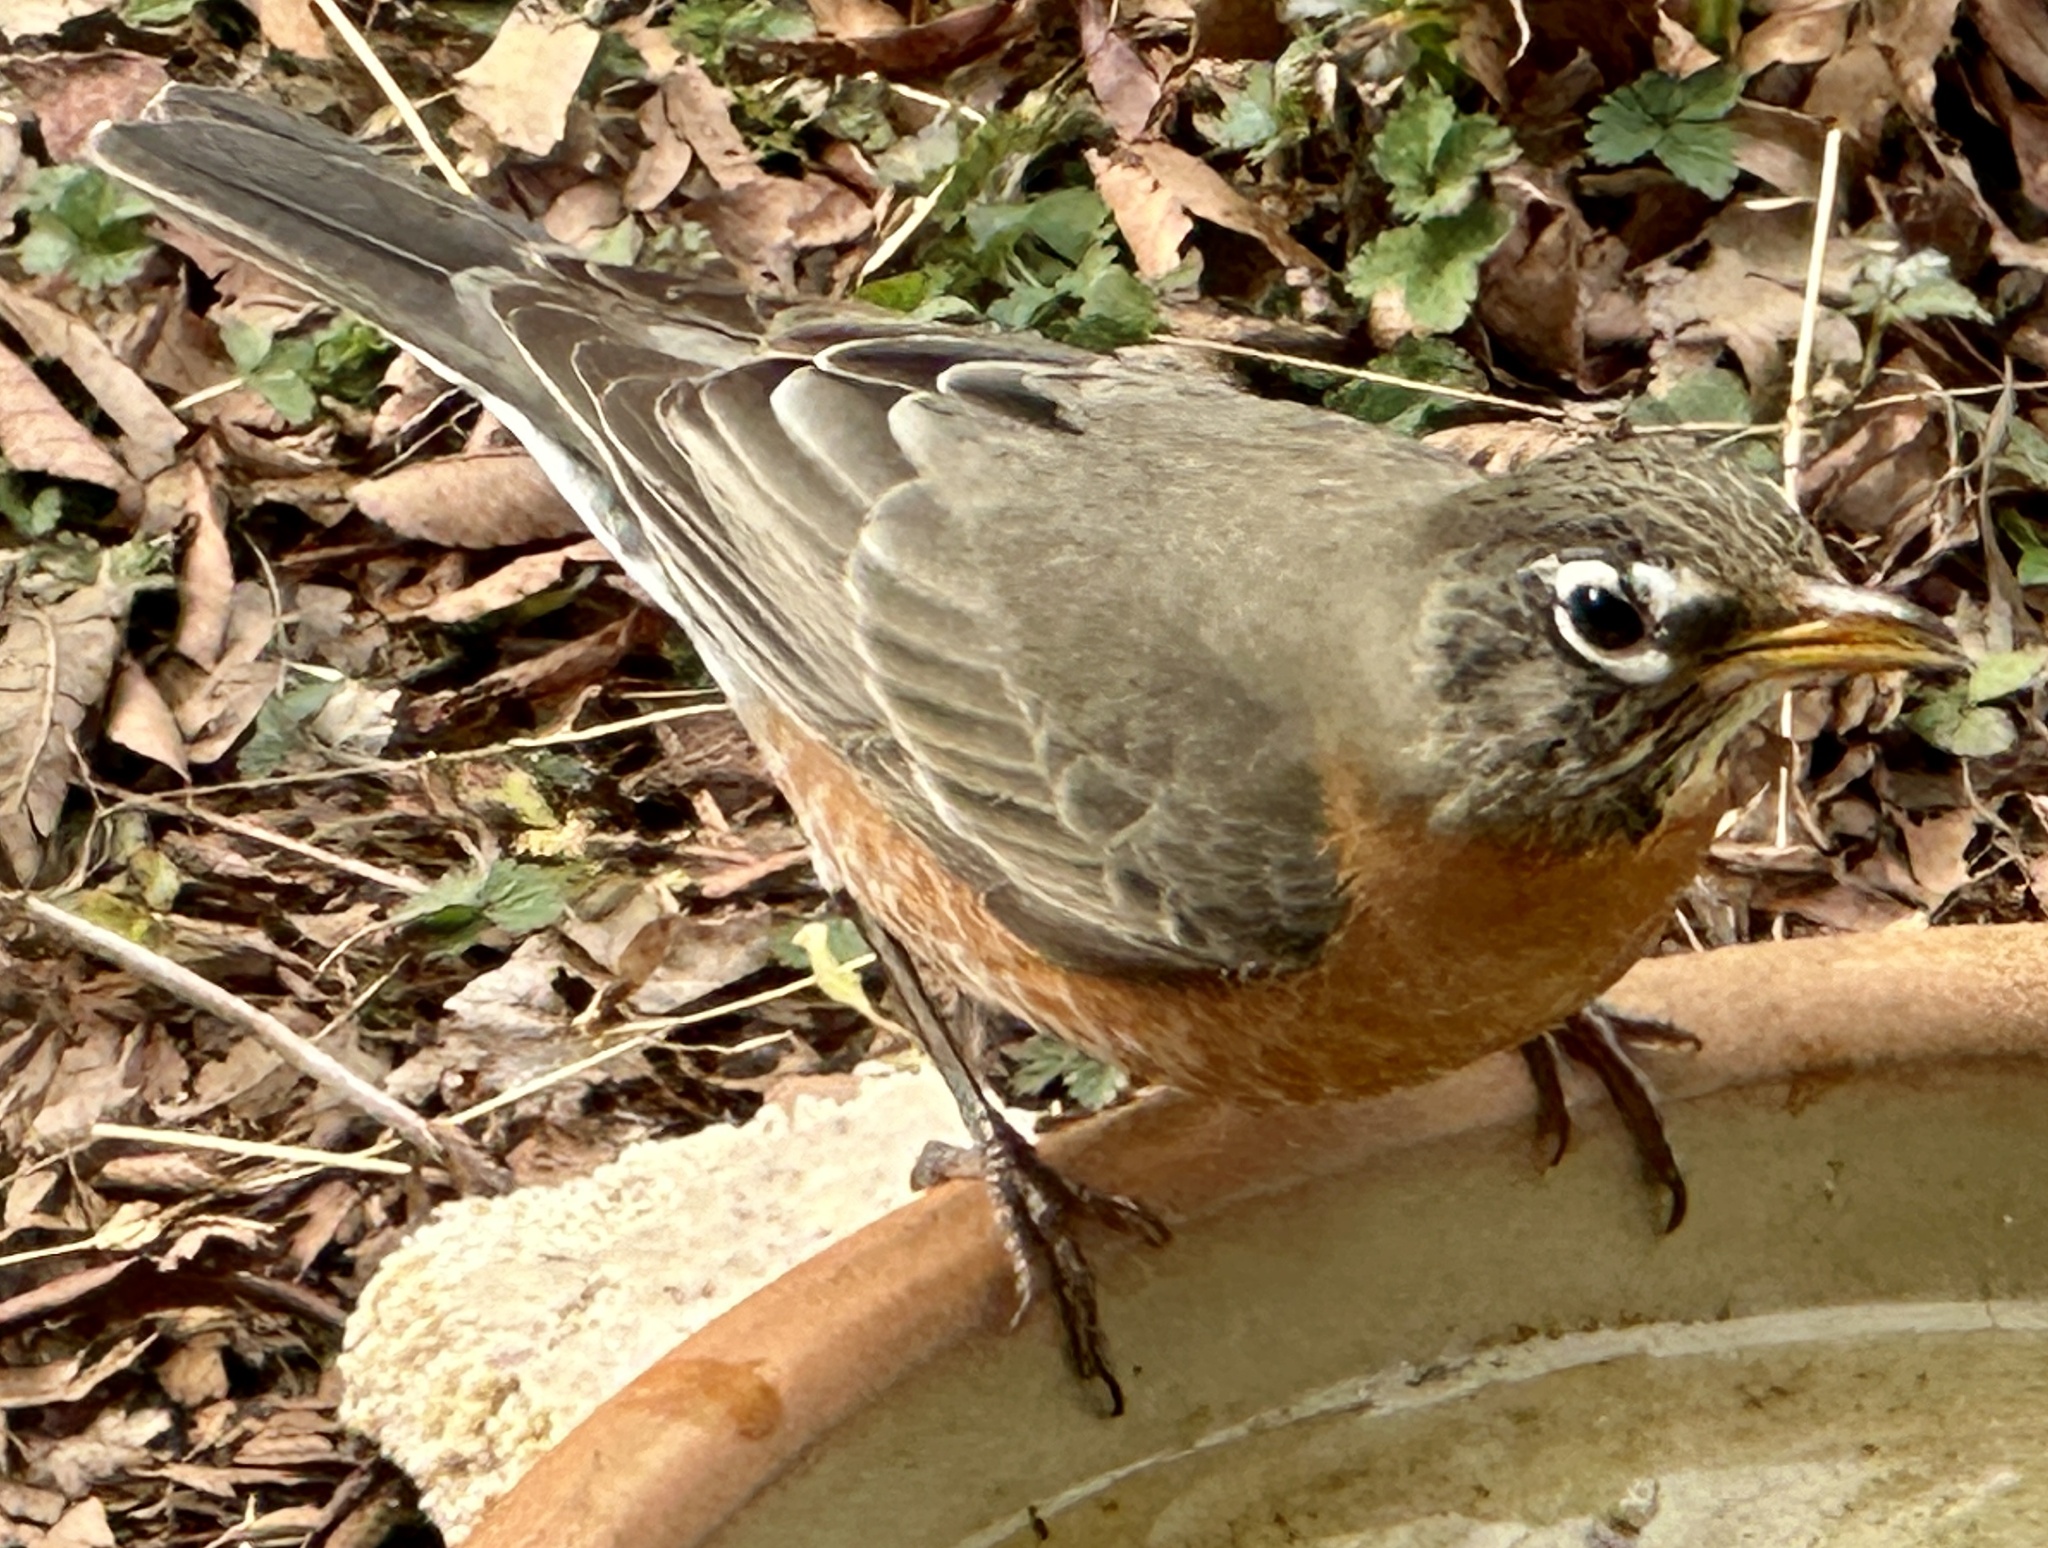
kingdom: Animalia
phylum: Chordata
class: Aves
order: Passeriformes
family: Turdidae
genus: Turdus
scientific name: Turdus migratorius
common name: American robin
